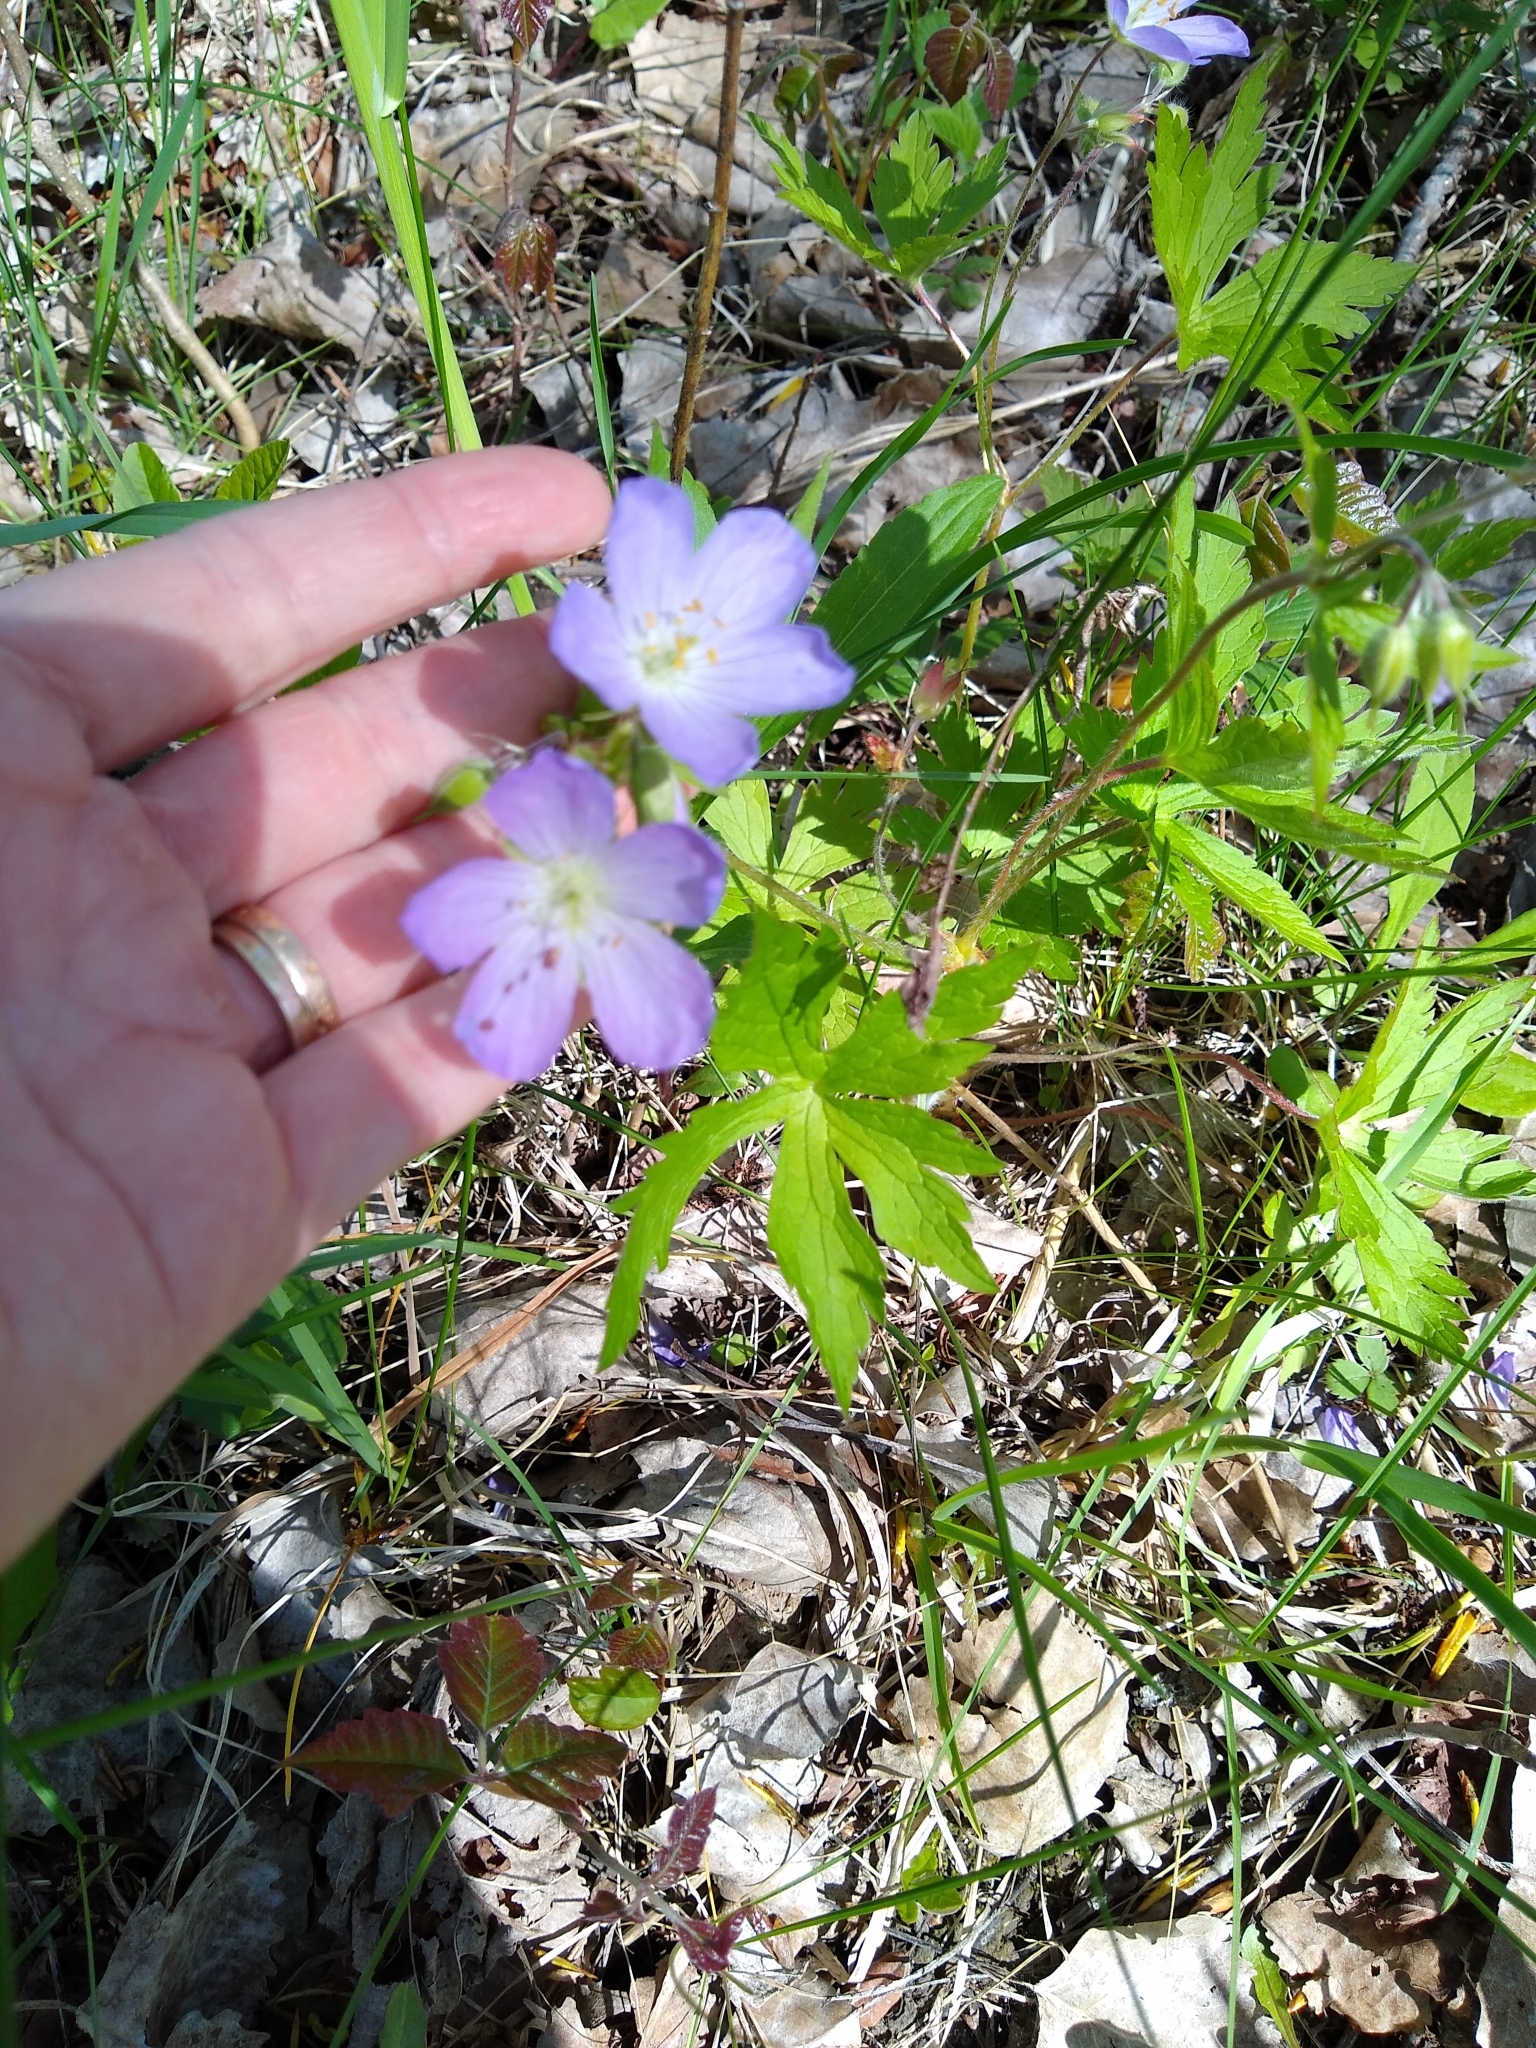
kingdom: Plantae
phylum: Tracheophyta
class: Magnoliopsida
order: Geraniales
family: Geraniaceae
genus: Geranium
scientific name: Geranium maculatum
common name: Spotted geranium
